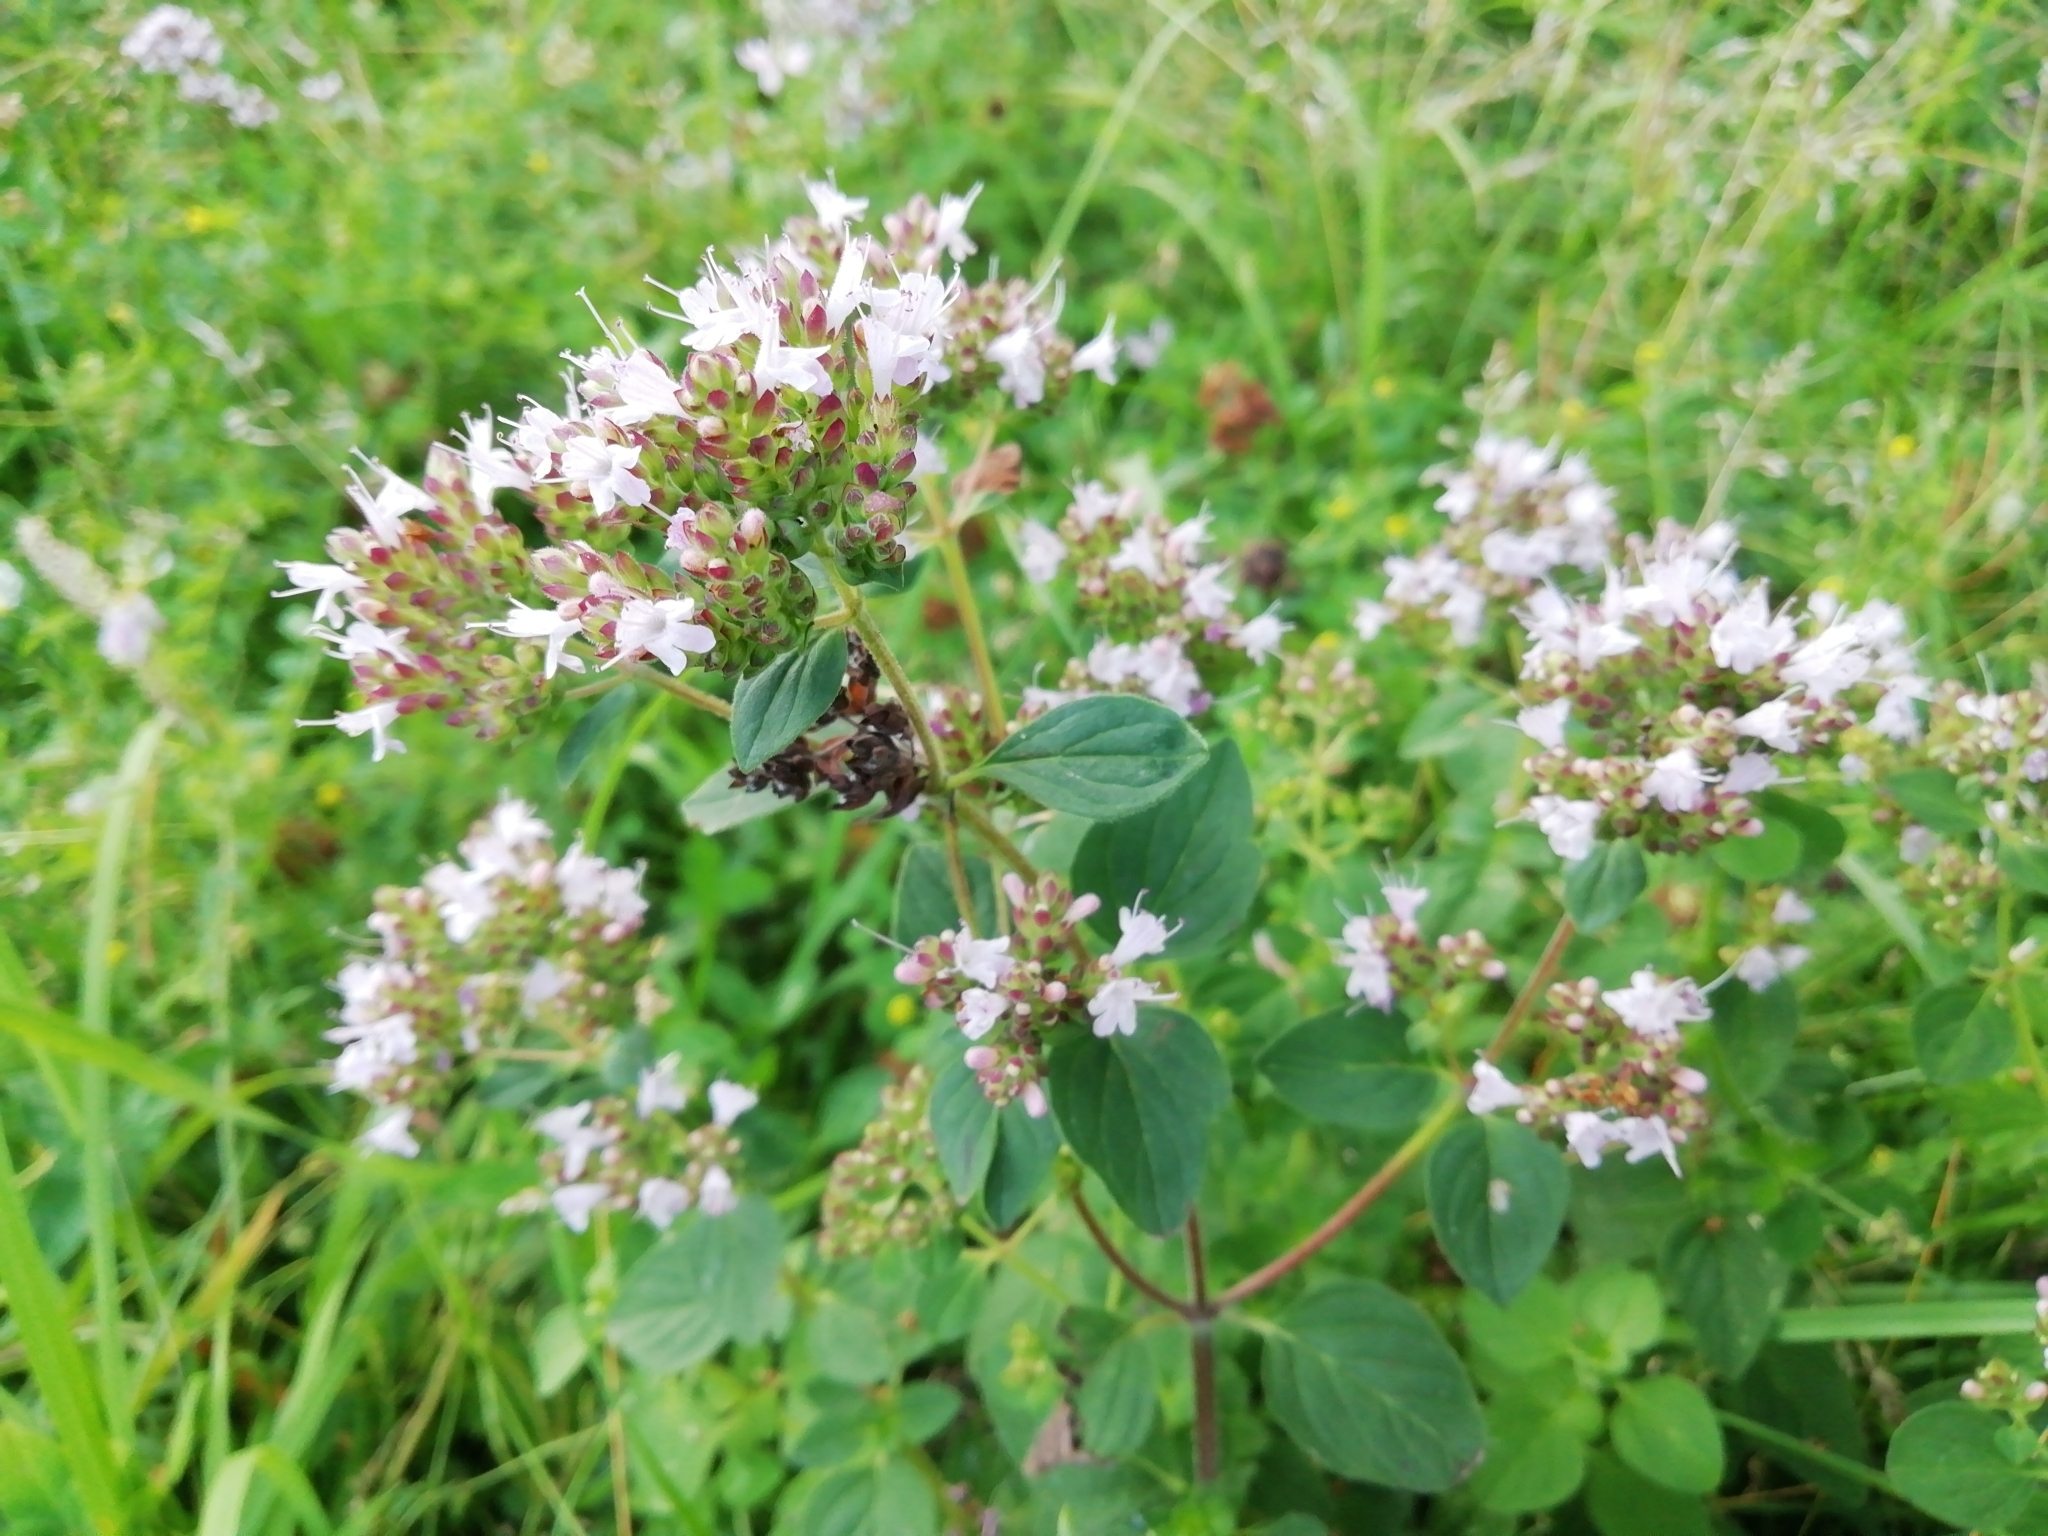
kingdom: Plantae
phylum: Tracheophyta
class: Magnoliopsida
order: Lamiales
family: Lamiaceae
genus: Origanum
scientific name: Origanum vulgare
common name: Wild marjoram
